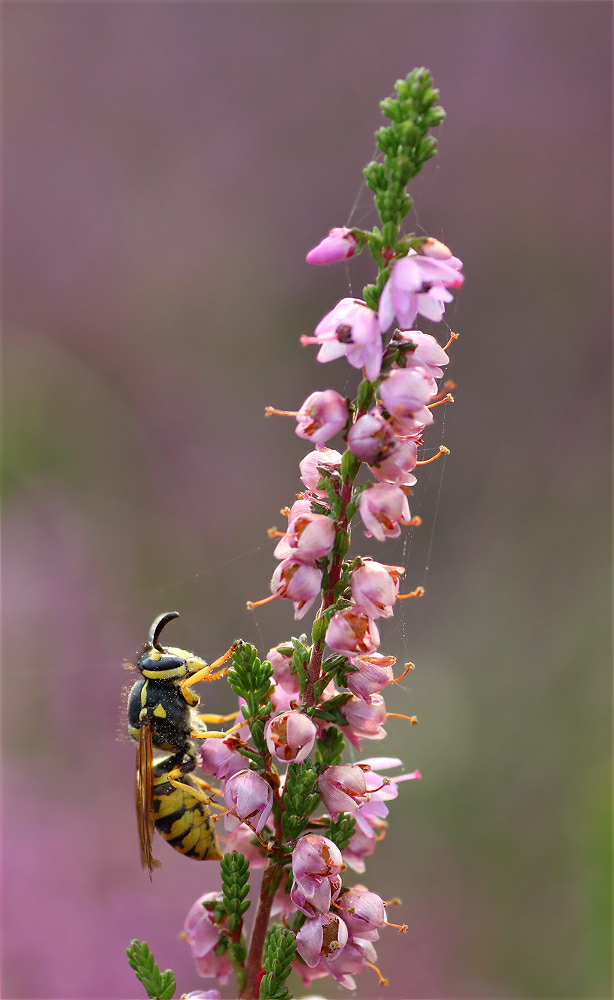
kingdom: Animalia
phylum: Arthropoda
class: Insecta
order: Hymenoptera
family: Vespidae
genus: Vespula
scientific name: Vespula germanica
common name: German wasp
